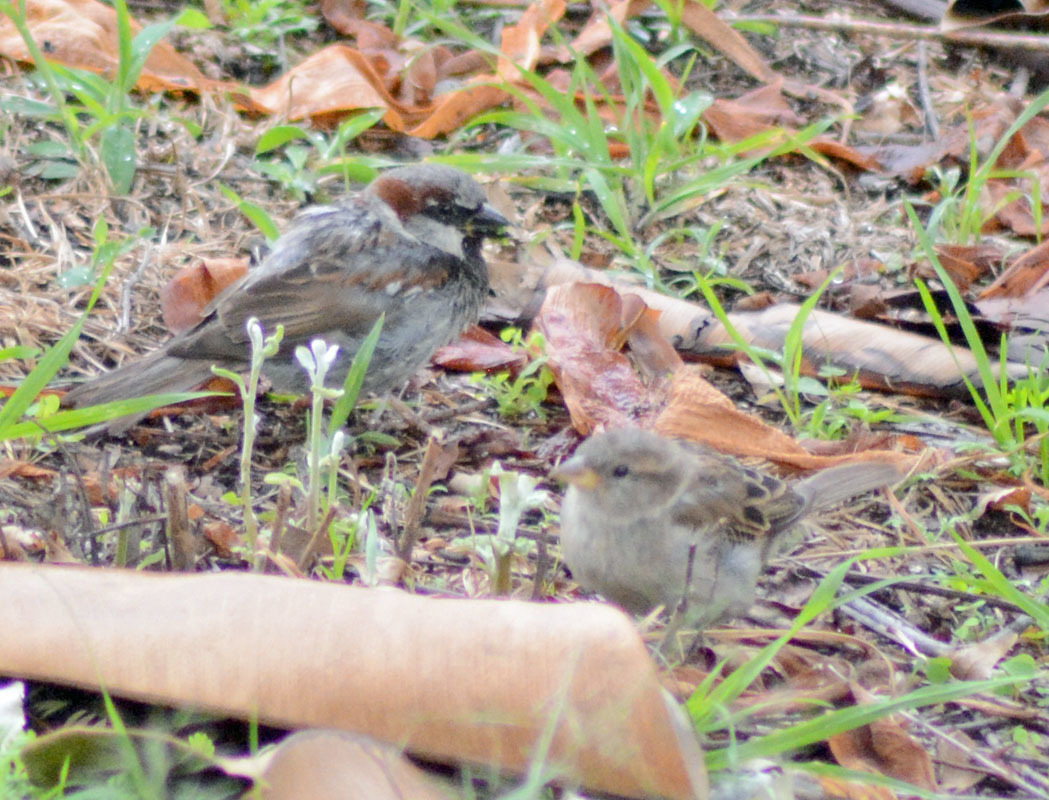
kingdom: Animalia
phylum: Chordata
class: Aves
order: Passeriformes
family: Passeridae
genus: Passer
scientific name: Passer domesticus
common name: House sparrow
